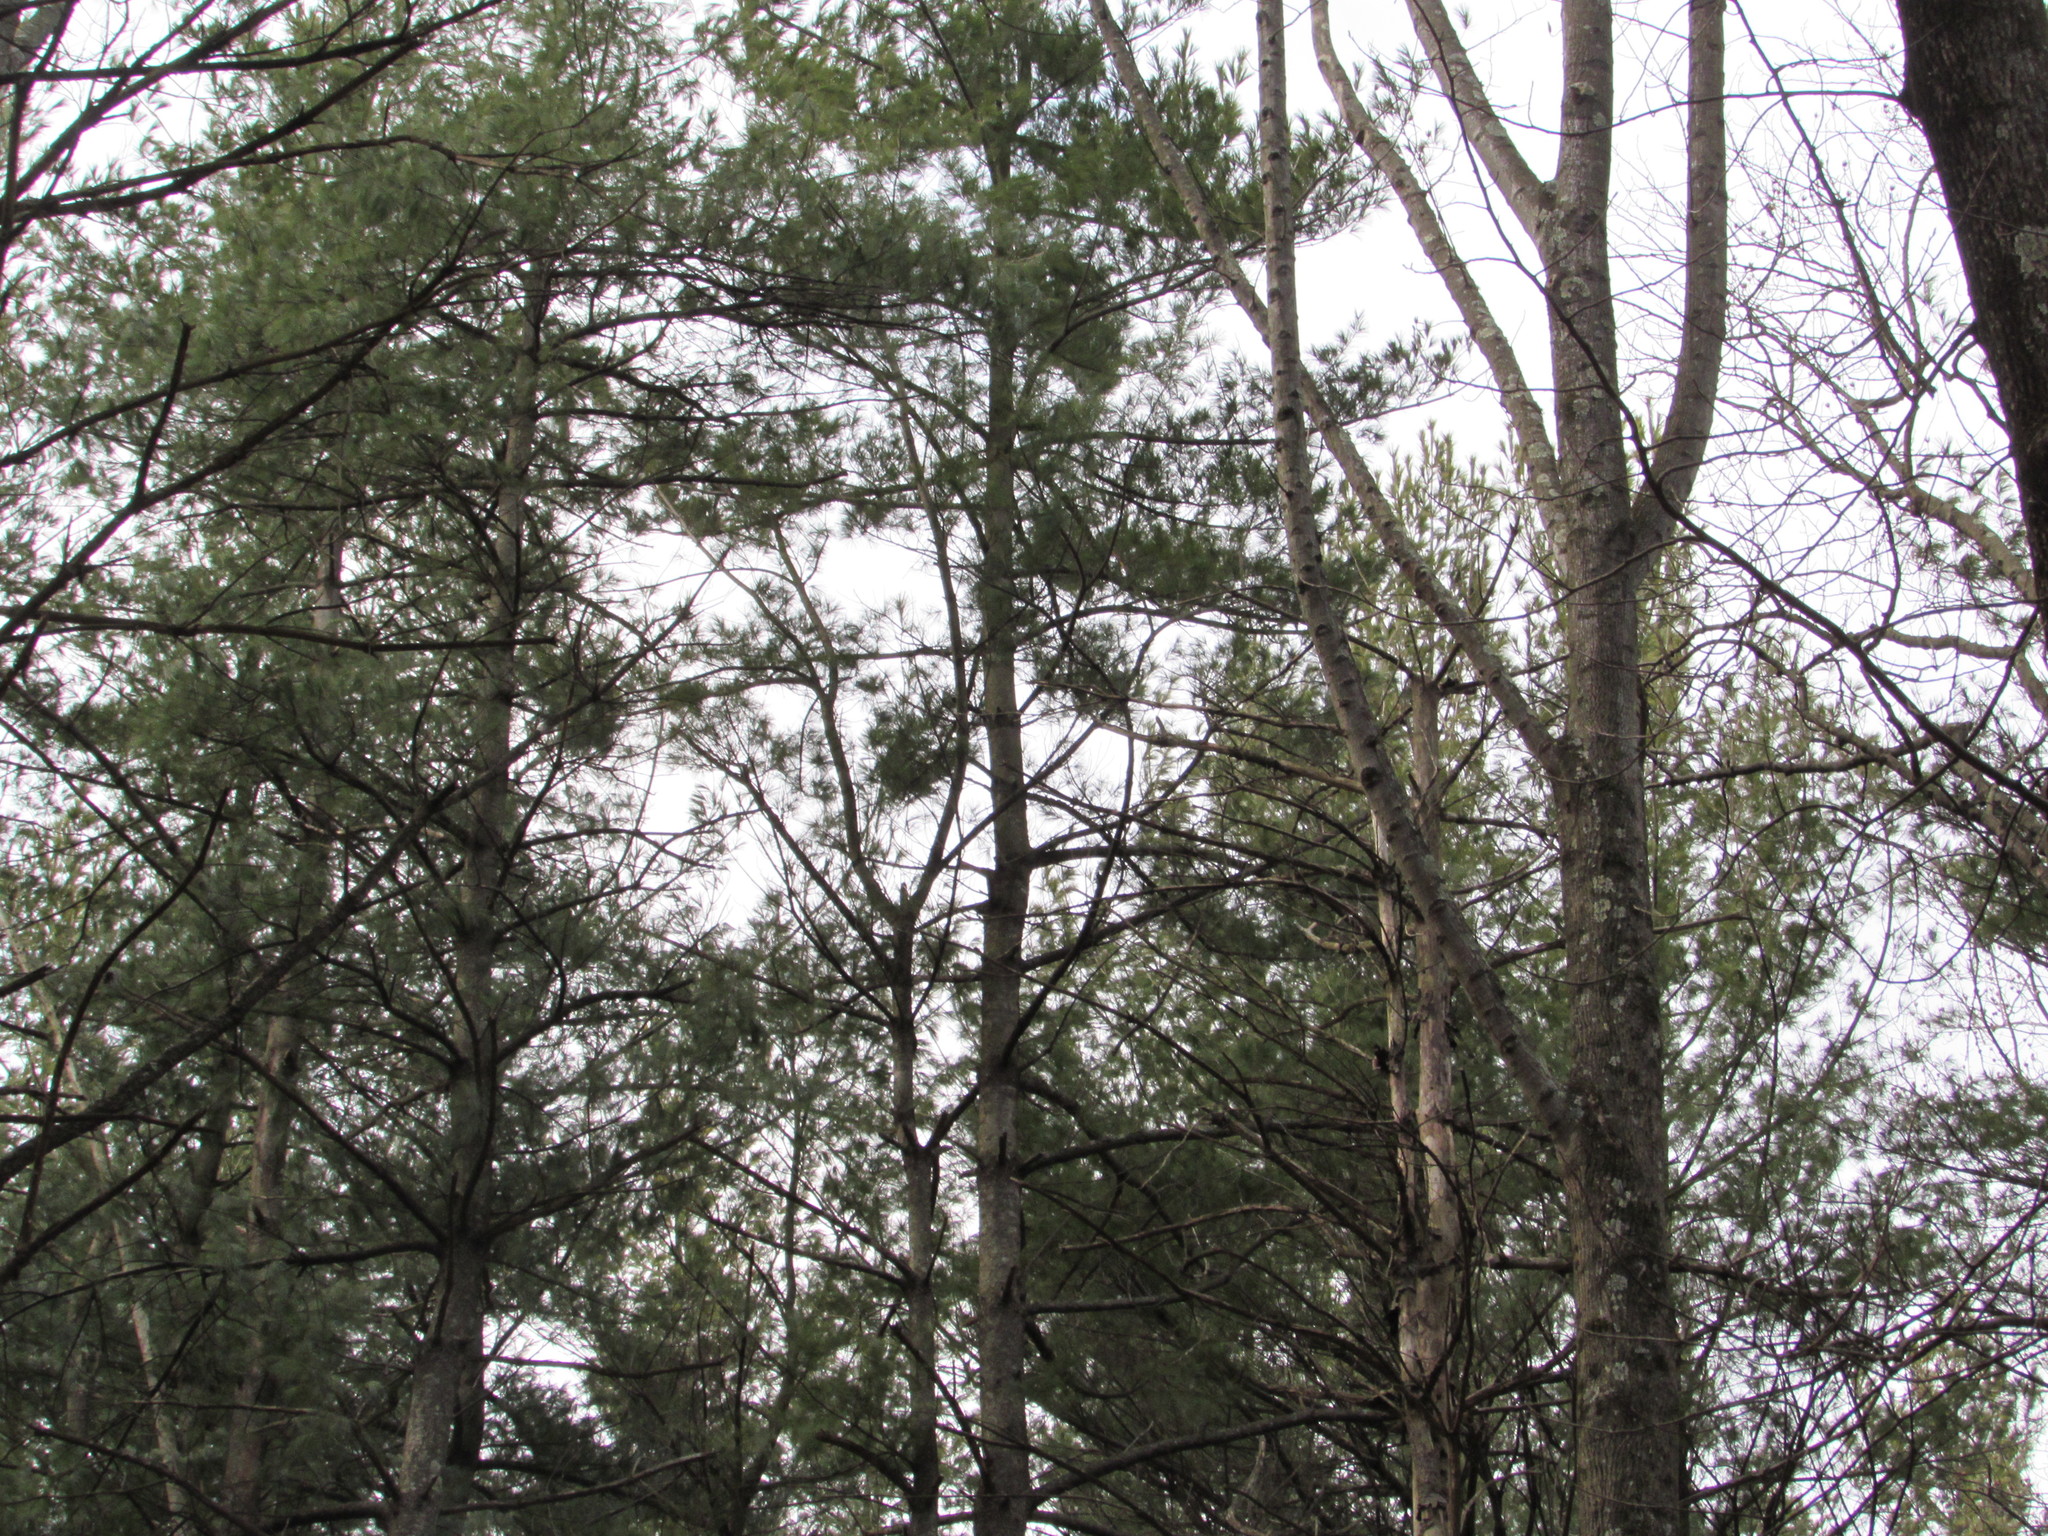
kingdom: Plantae
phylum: Tracheophyta
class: Pinopsida
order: Pinales
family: Pinaceae
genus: Pinus
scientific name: Pinus strobus
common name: Weymouth pine
